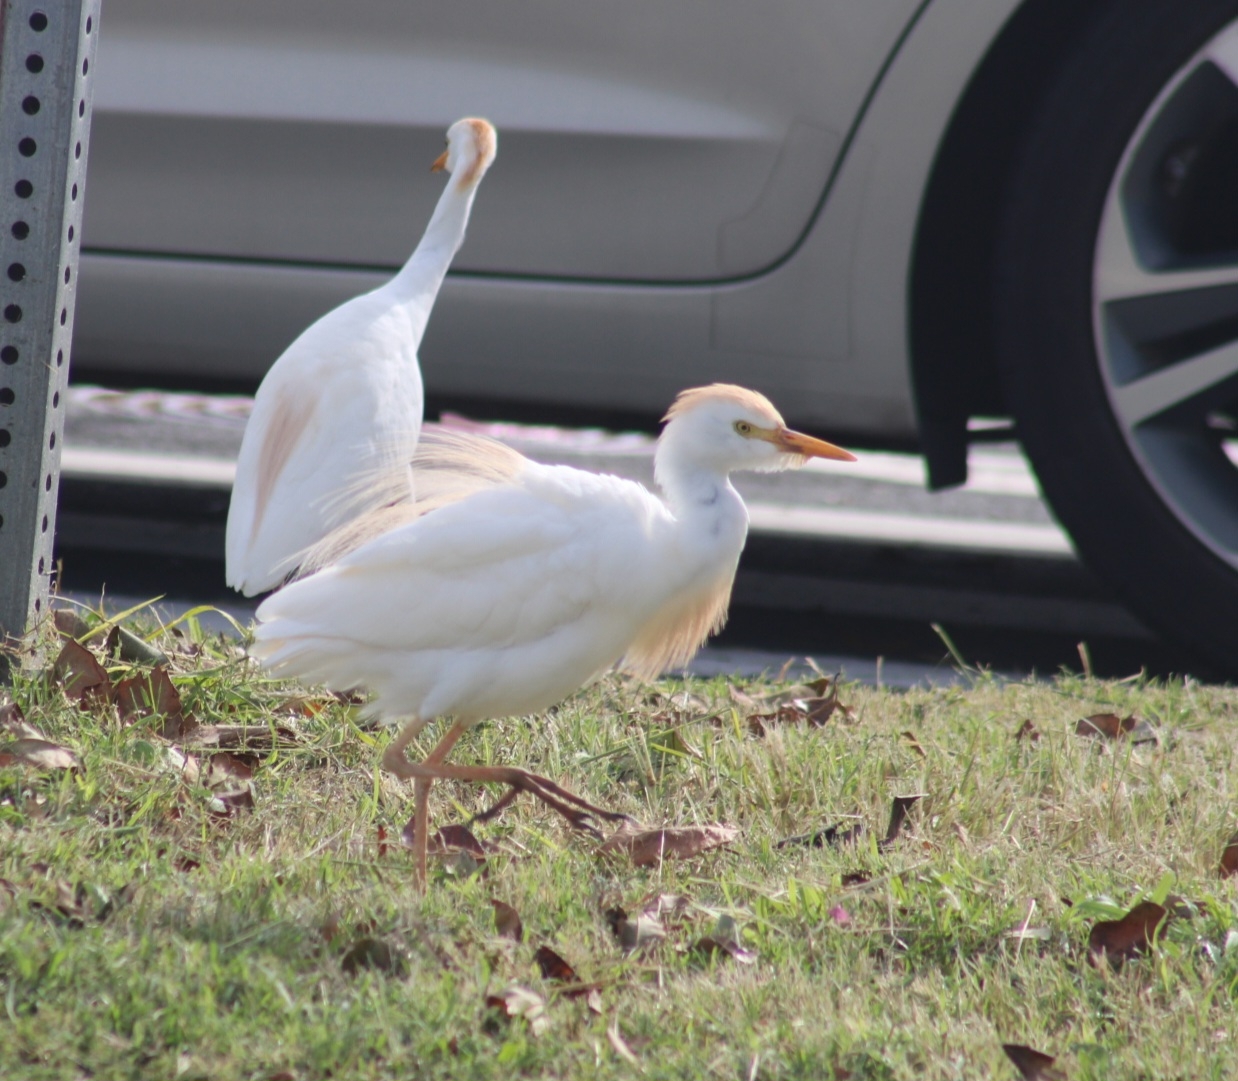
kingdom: Animalia
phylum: Chordata
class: Aves
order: Pelecaniformes
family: Ardeidae
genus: Bubulcus
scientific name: Bubulcus ibis
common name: Cattle egret
